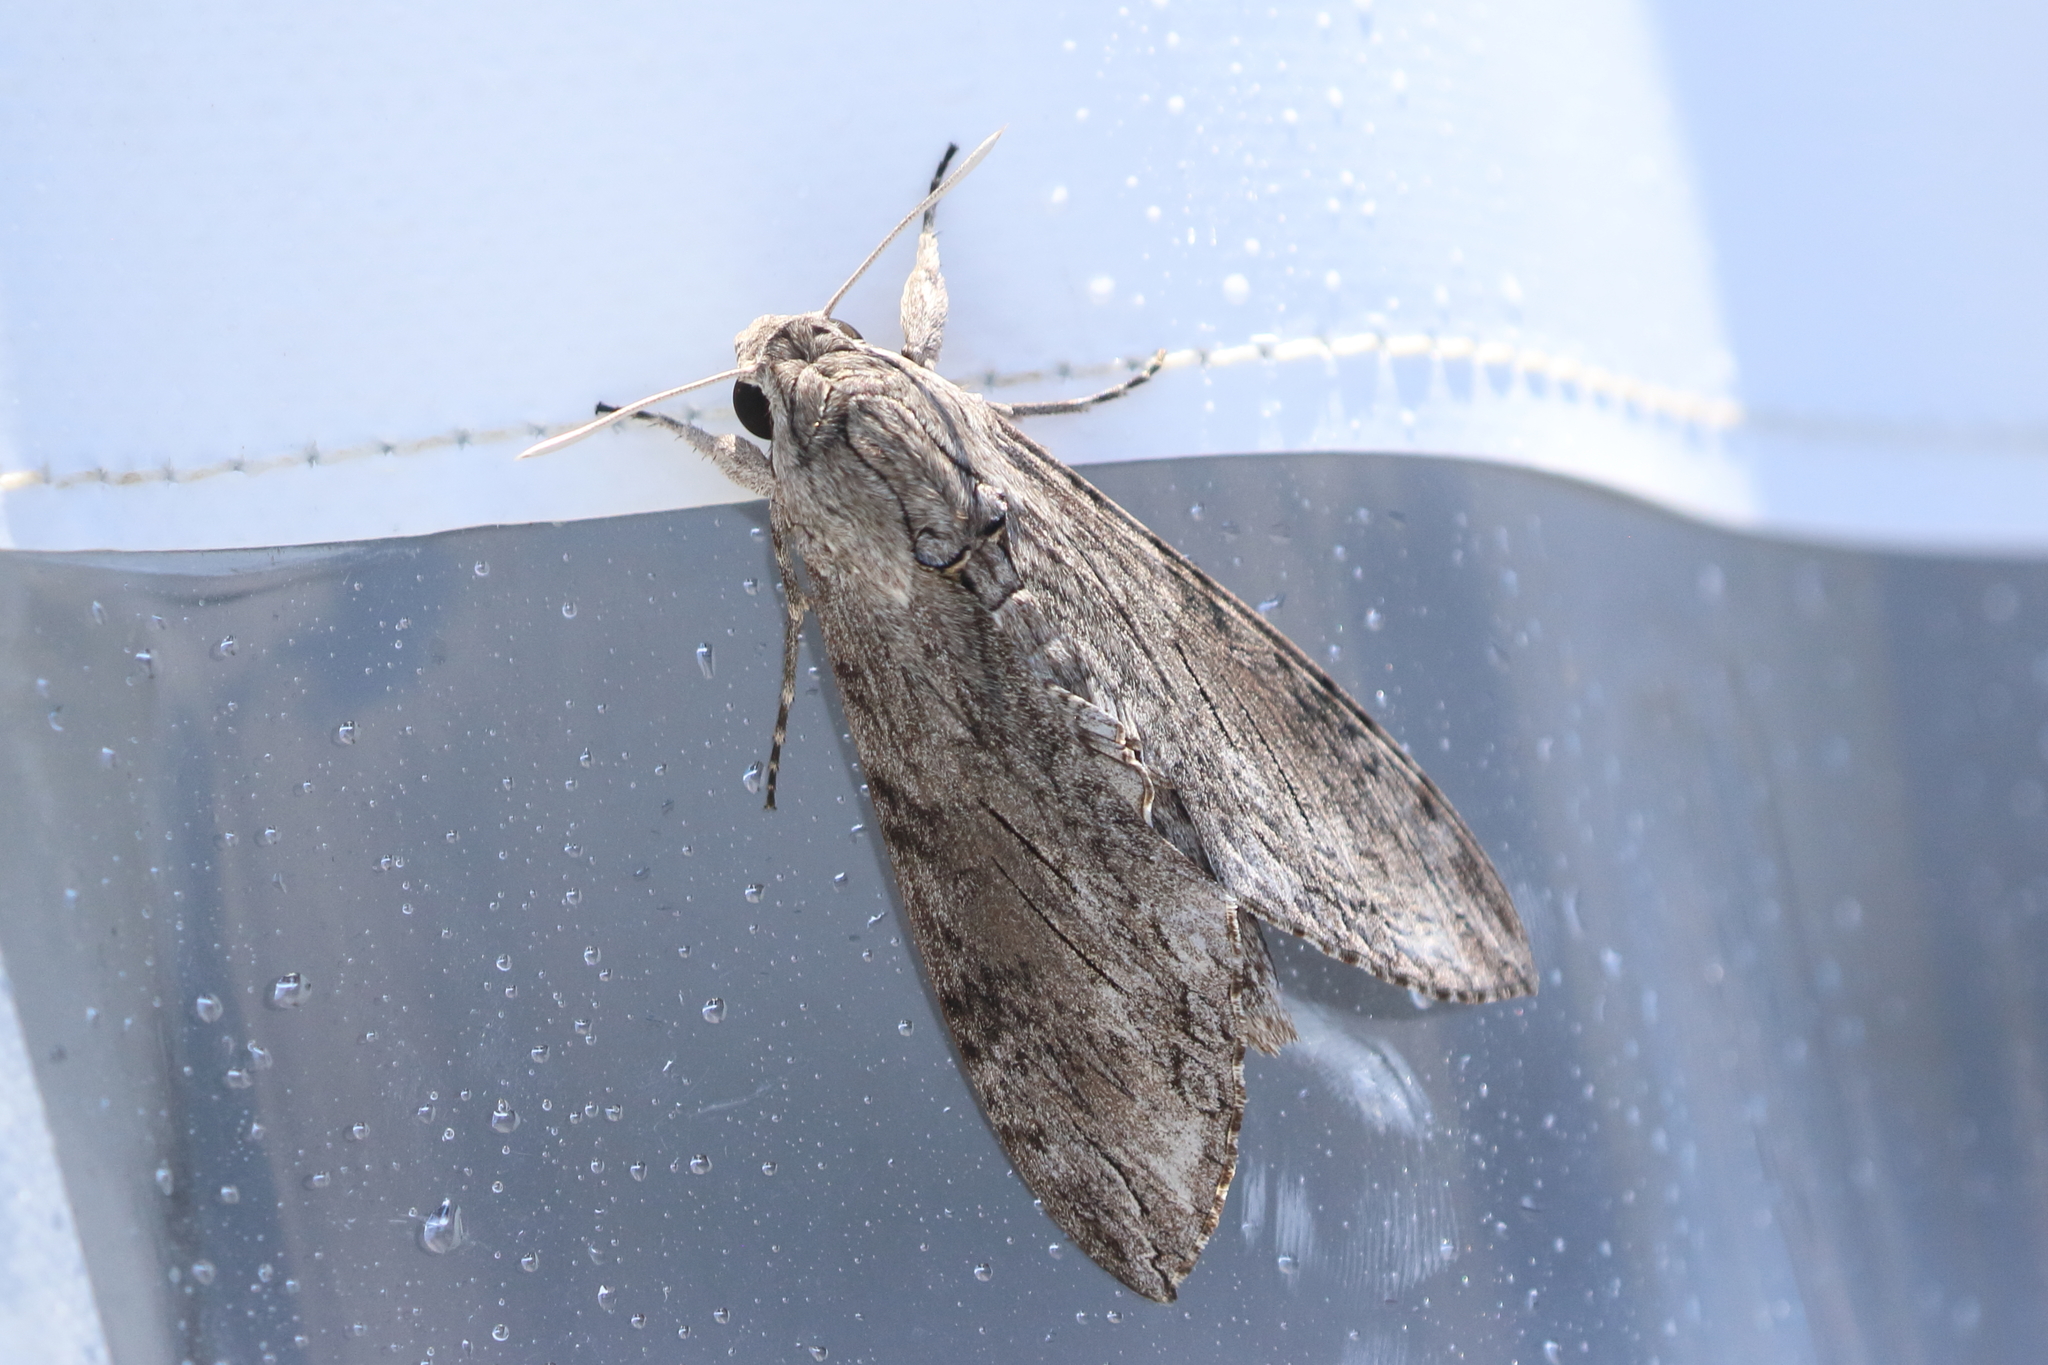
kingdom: Animalia
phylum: Arthropoda
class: Insecta
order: Lepidoptera
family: Sphingidae
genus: Agrius
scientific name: Agrius convolvuli
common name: Convolvulus hawkmoth
